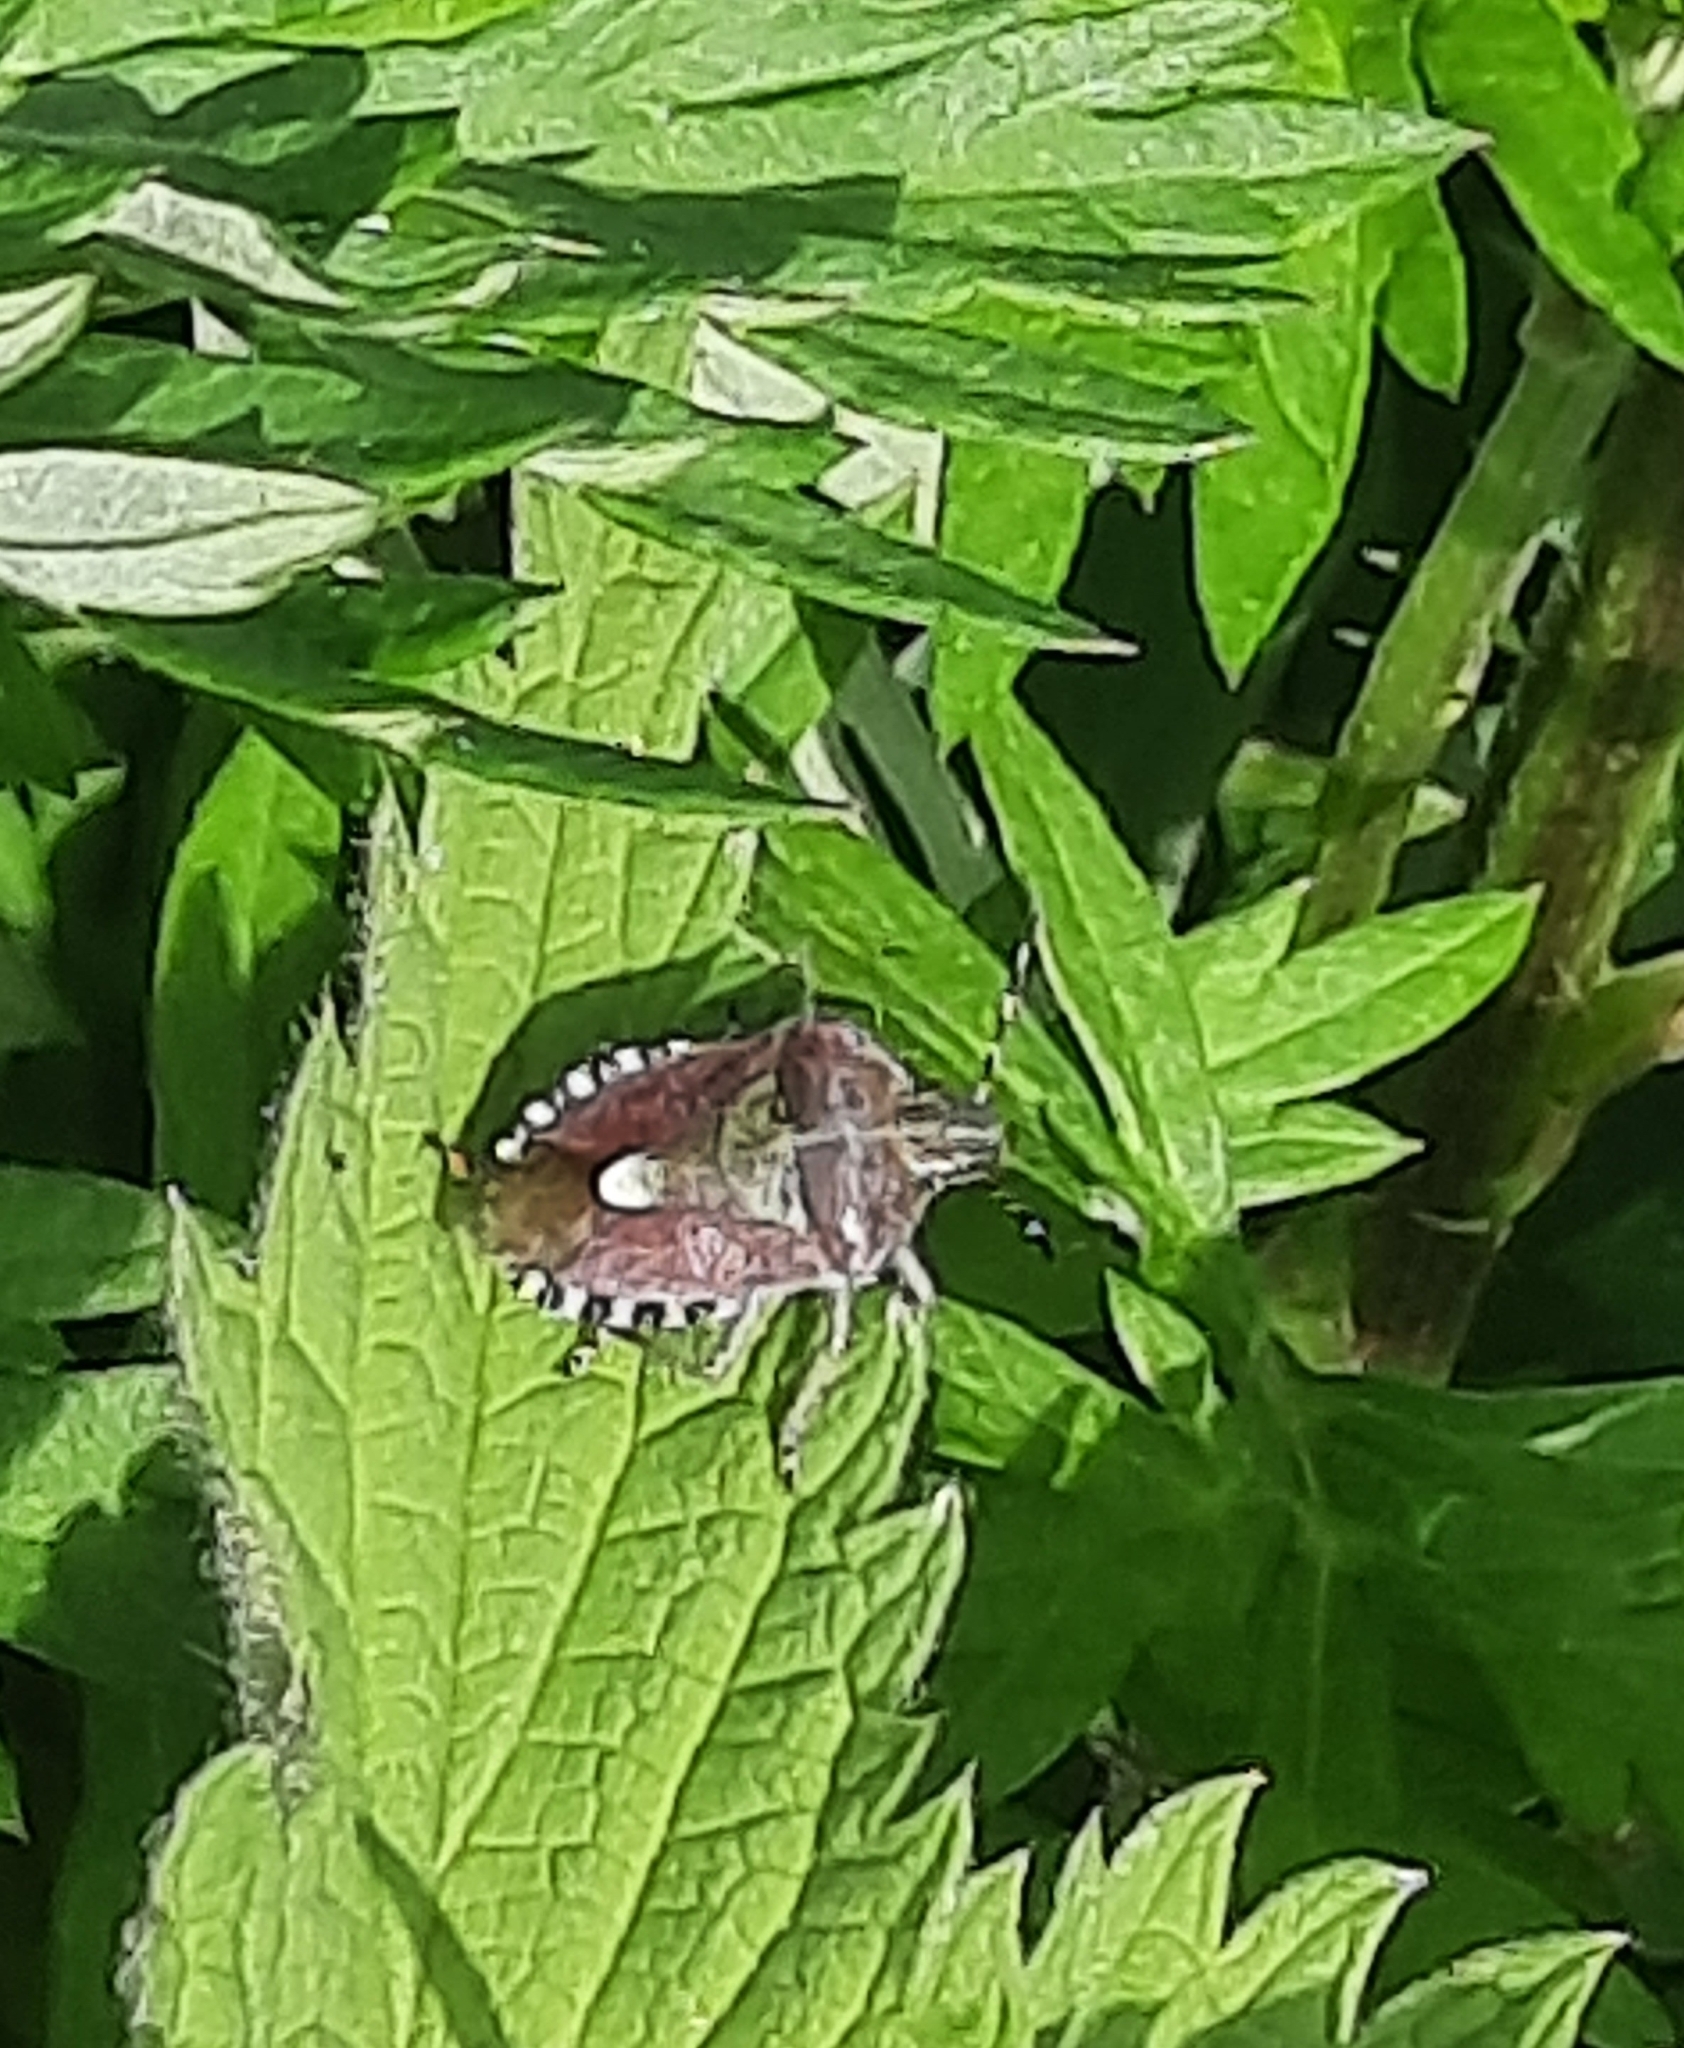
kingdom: Animalia
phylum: Arthropoda
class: Insecta
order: Hemiptera
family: Pentatomidae
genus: Dolycoris
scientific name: Dolycoris baccarum
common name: Sloe bug
